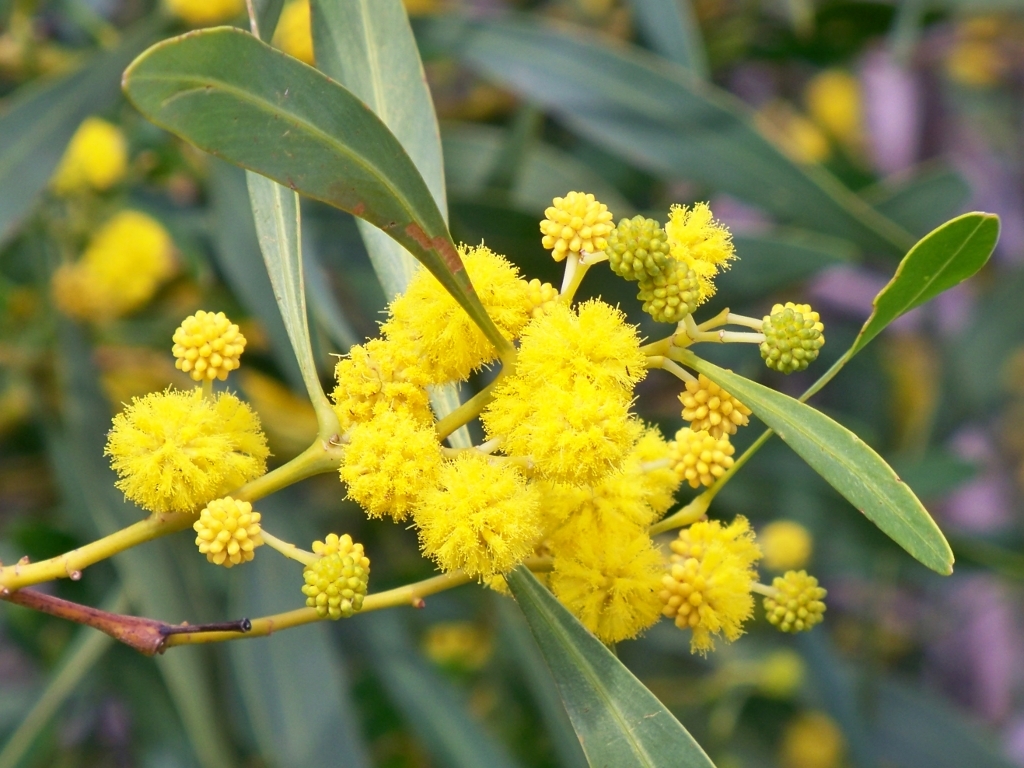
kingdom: Plantae
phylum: Tracheophyta
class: Magnoliopsida
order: Fabales
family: Fabaceae
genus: Acacia
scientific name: Acacia saligna
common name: Orange wattle
